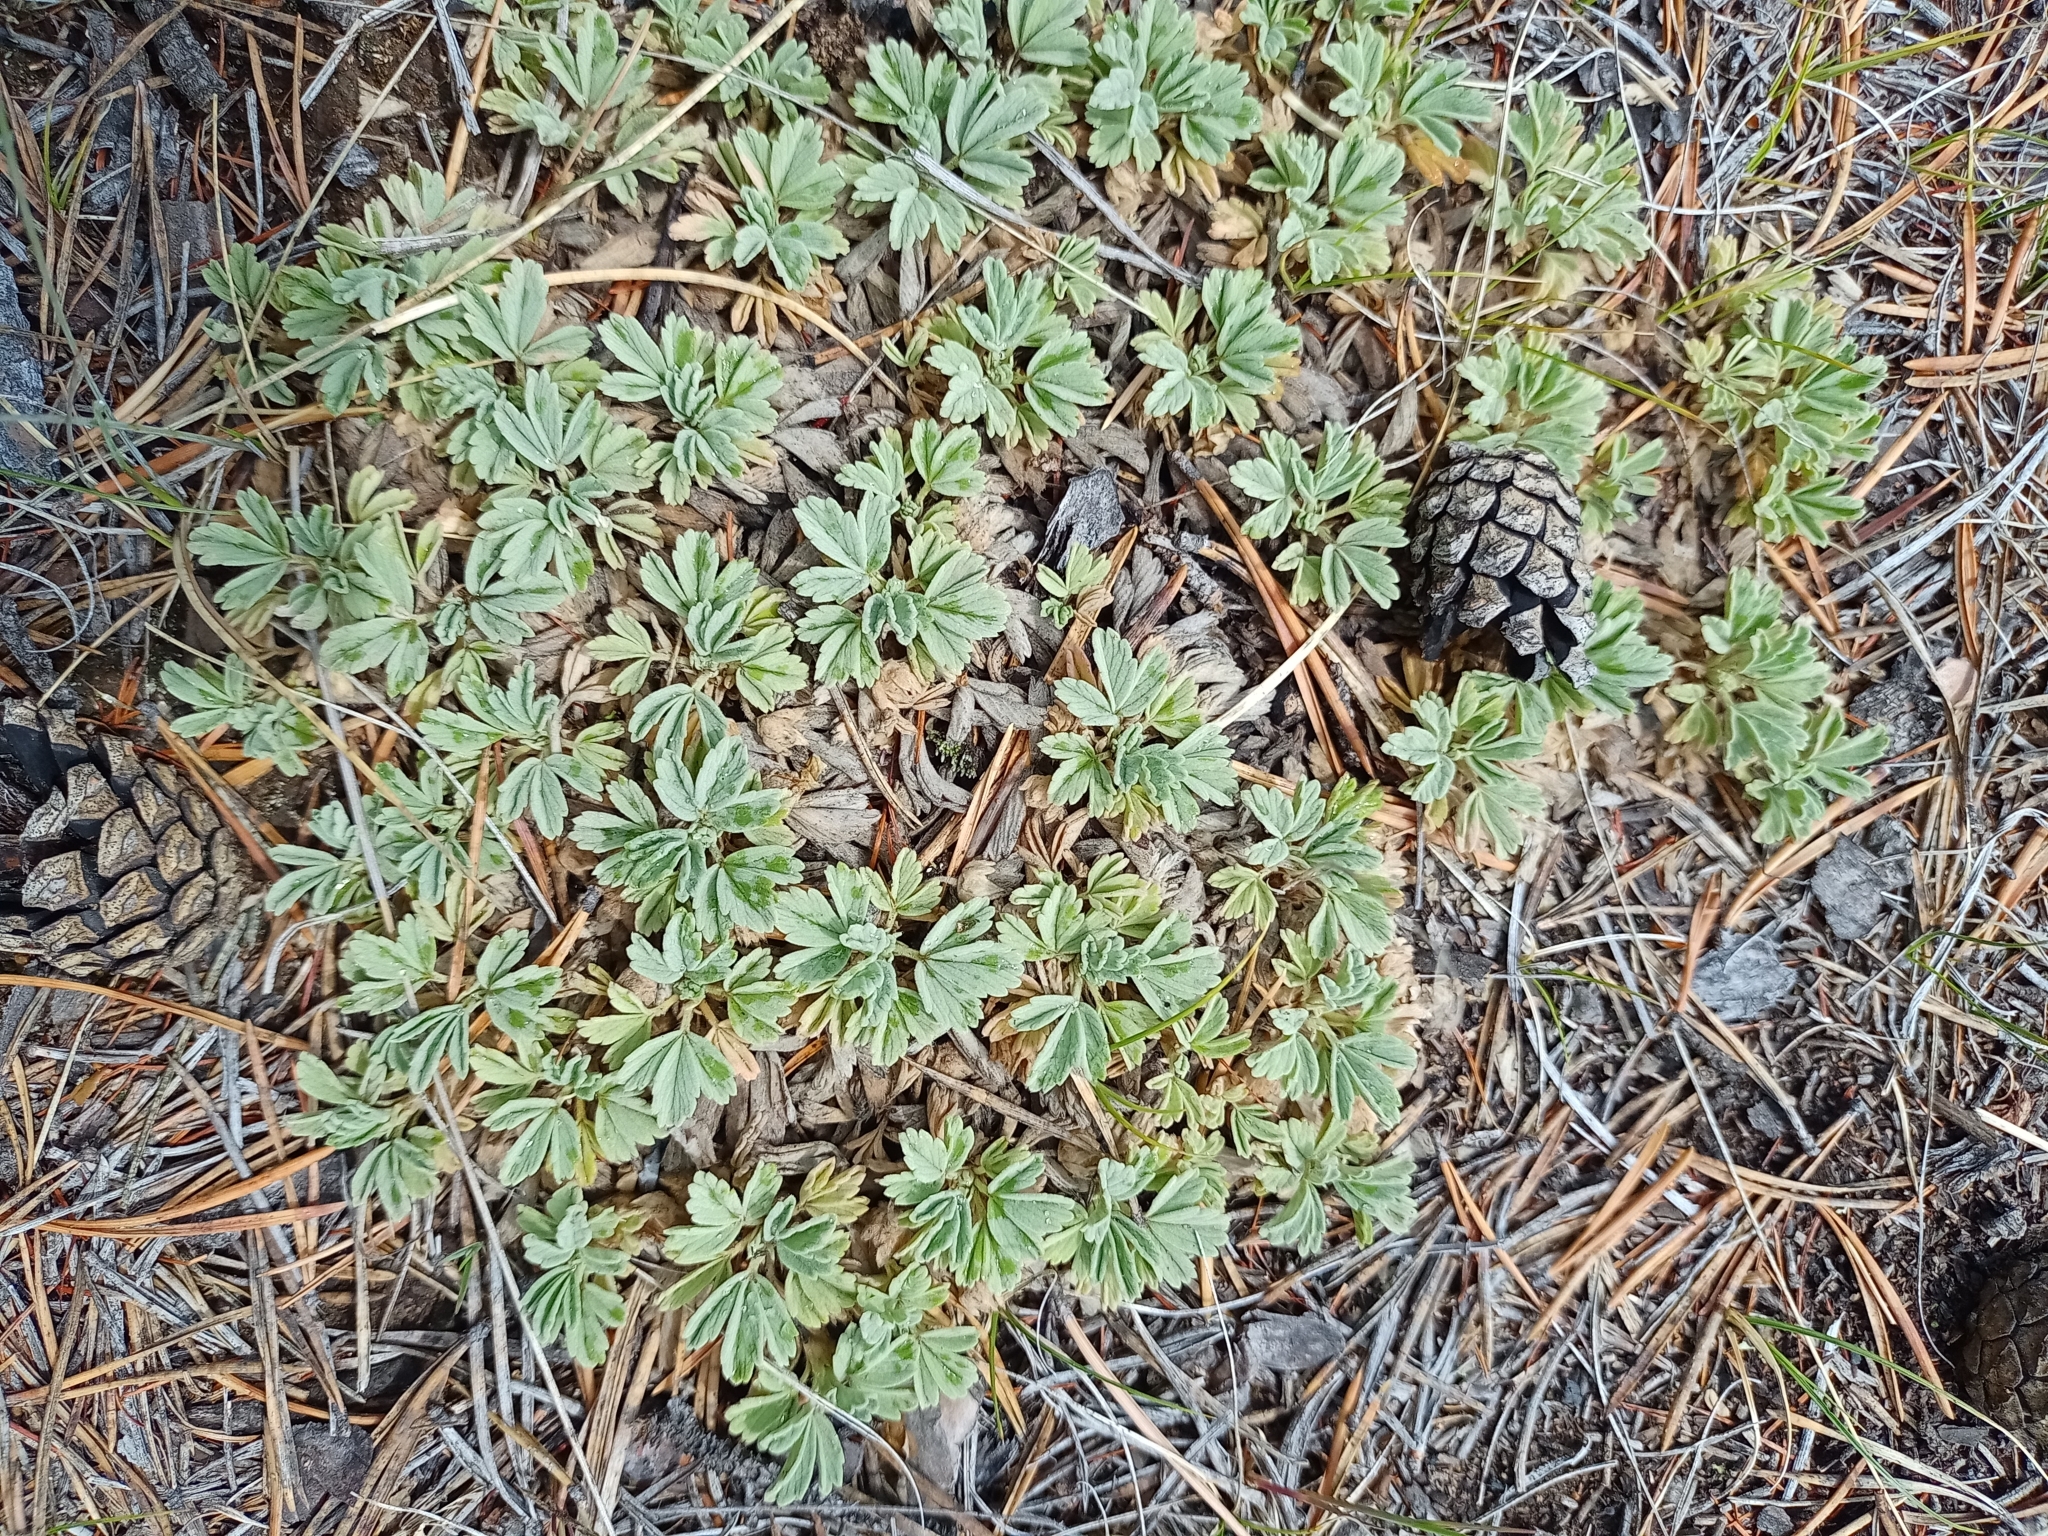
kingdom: Plantae
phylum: Tracheophyta
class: Magnoliopsida
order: Rosales
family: Rosaceae
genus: Potentilla
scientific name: Potentilla acaulis
